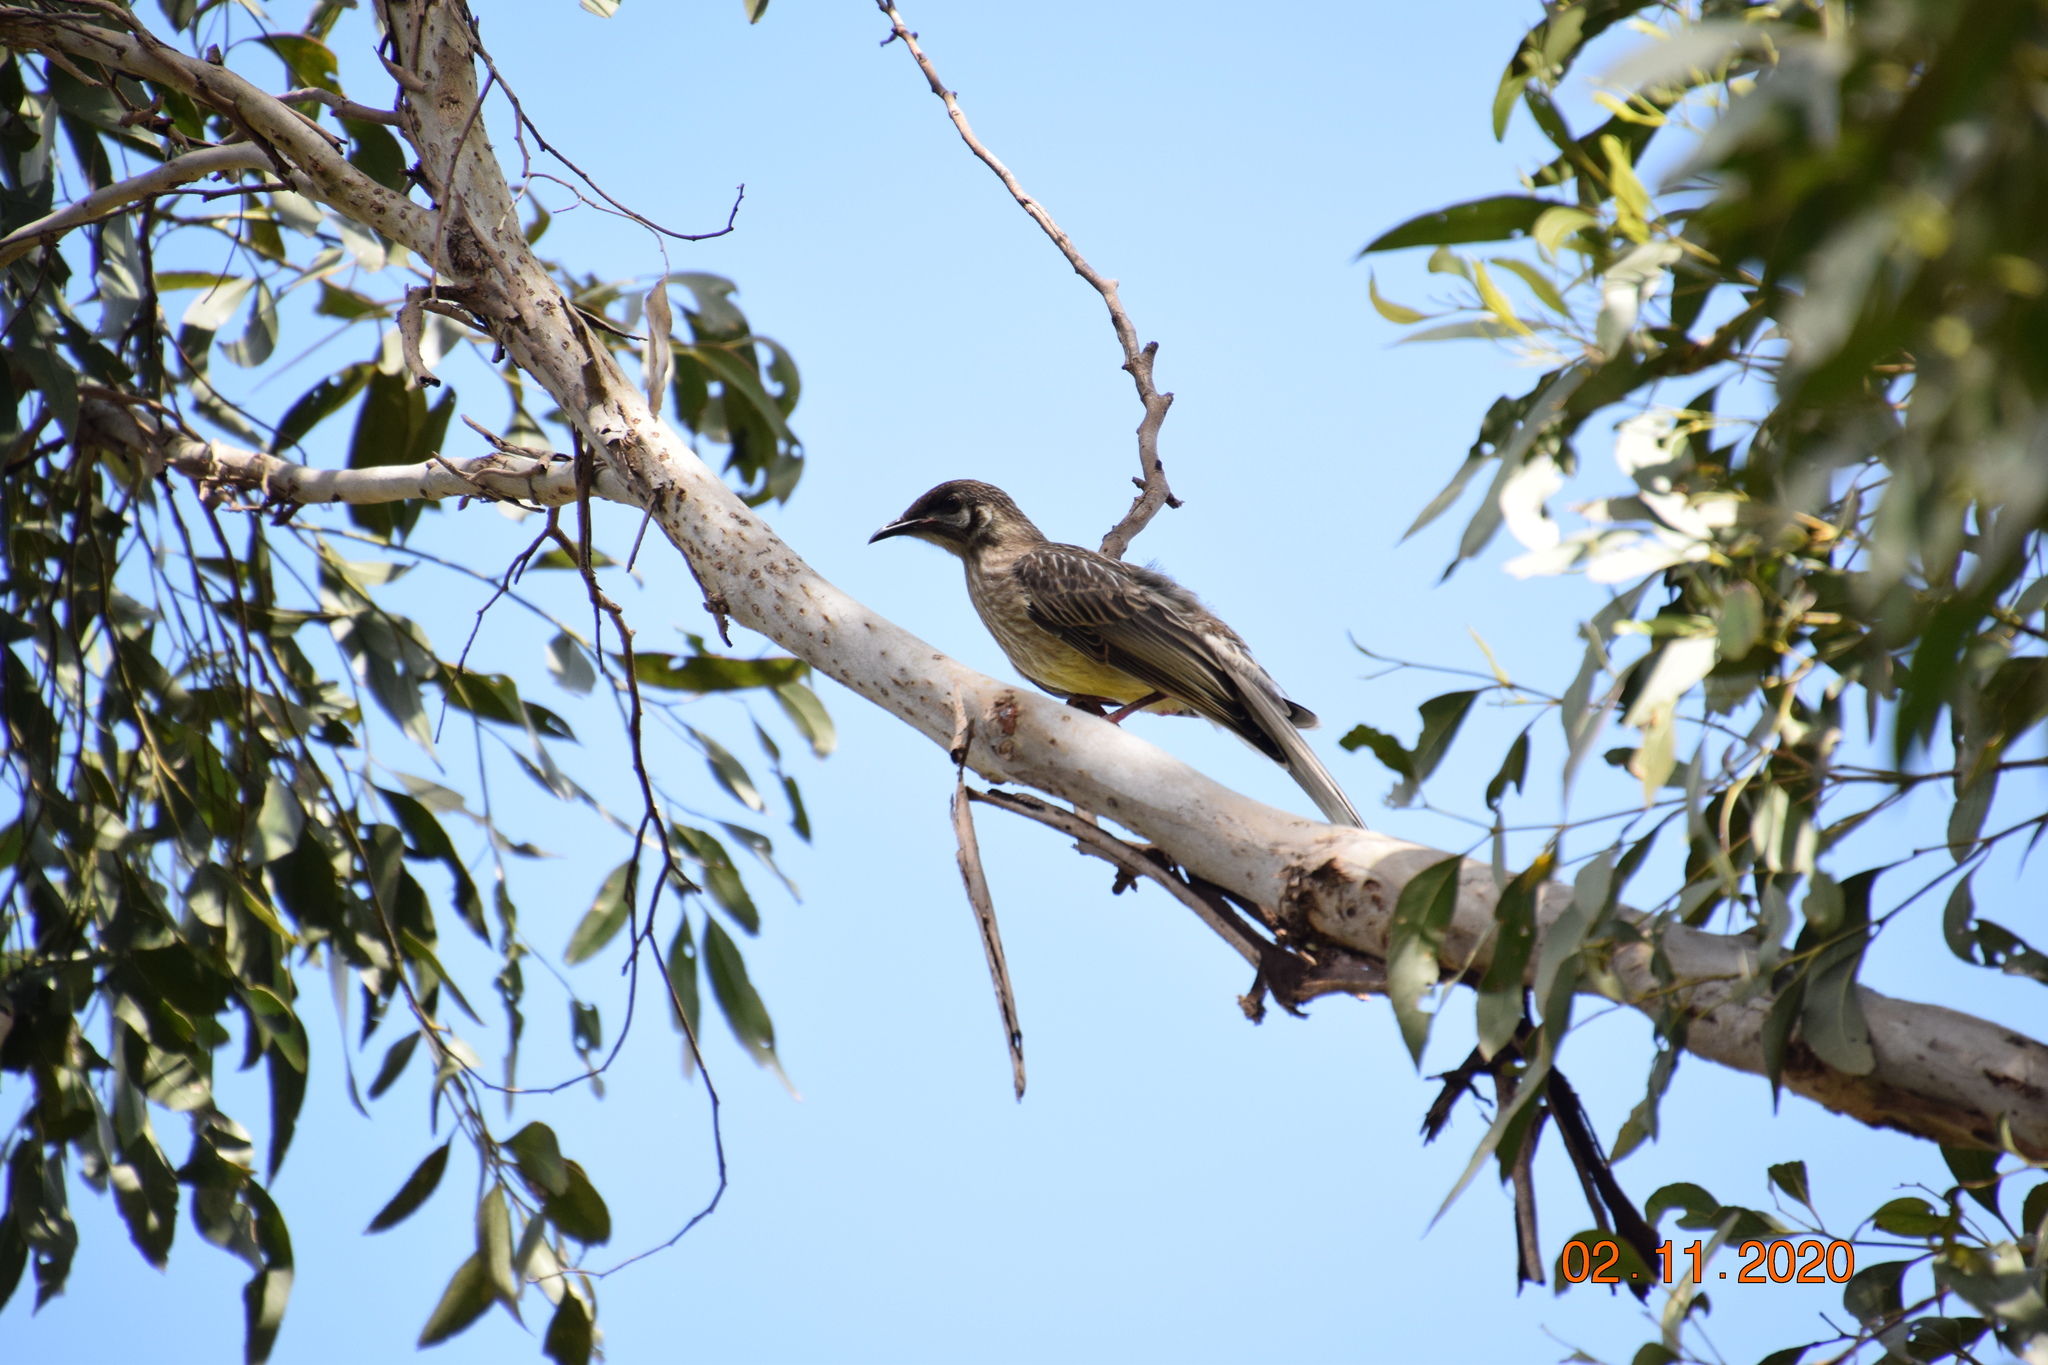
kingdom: Animalia
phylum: Chordata
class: Aves
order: Passeriformes
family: Meliphagidae
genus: Anthochaera
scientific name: Anthochaera carunculata
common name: Red wattlebird
